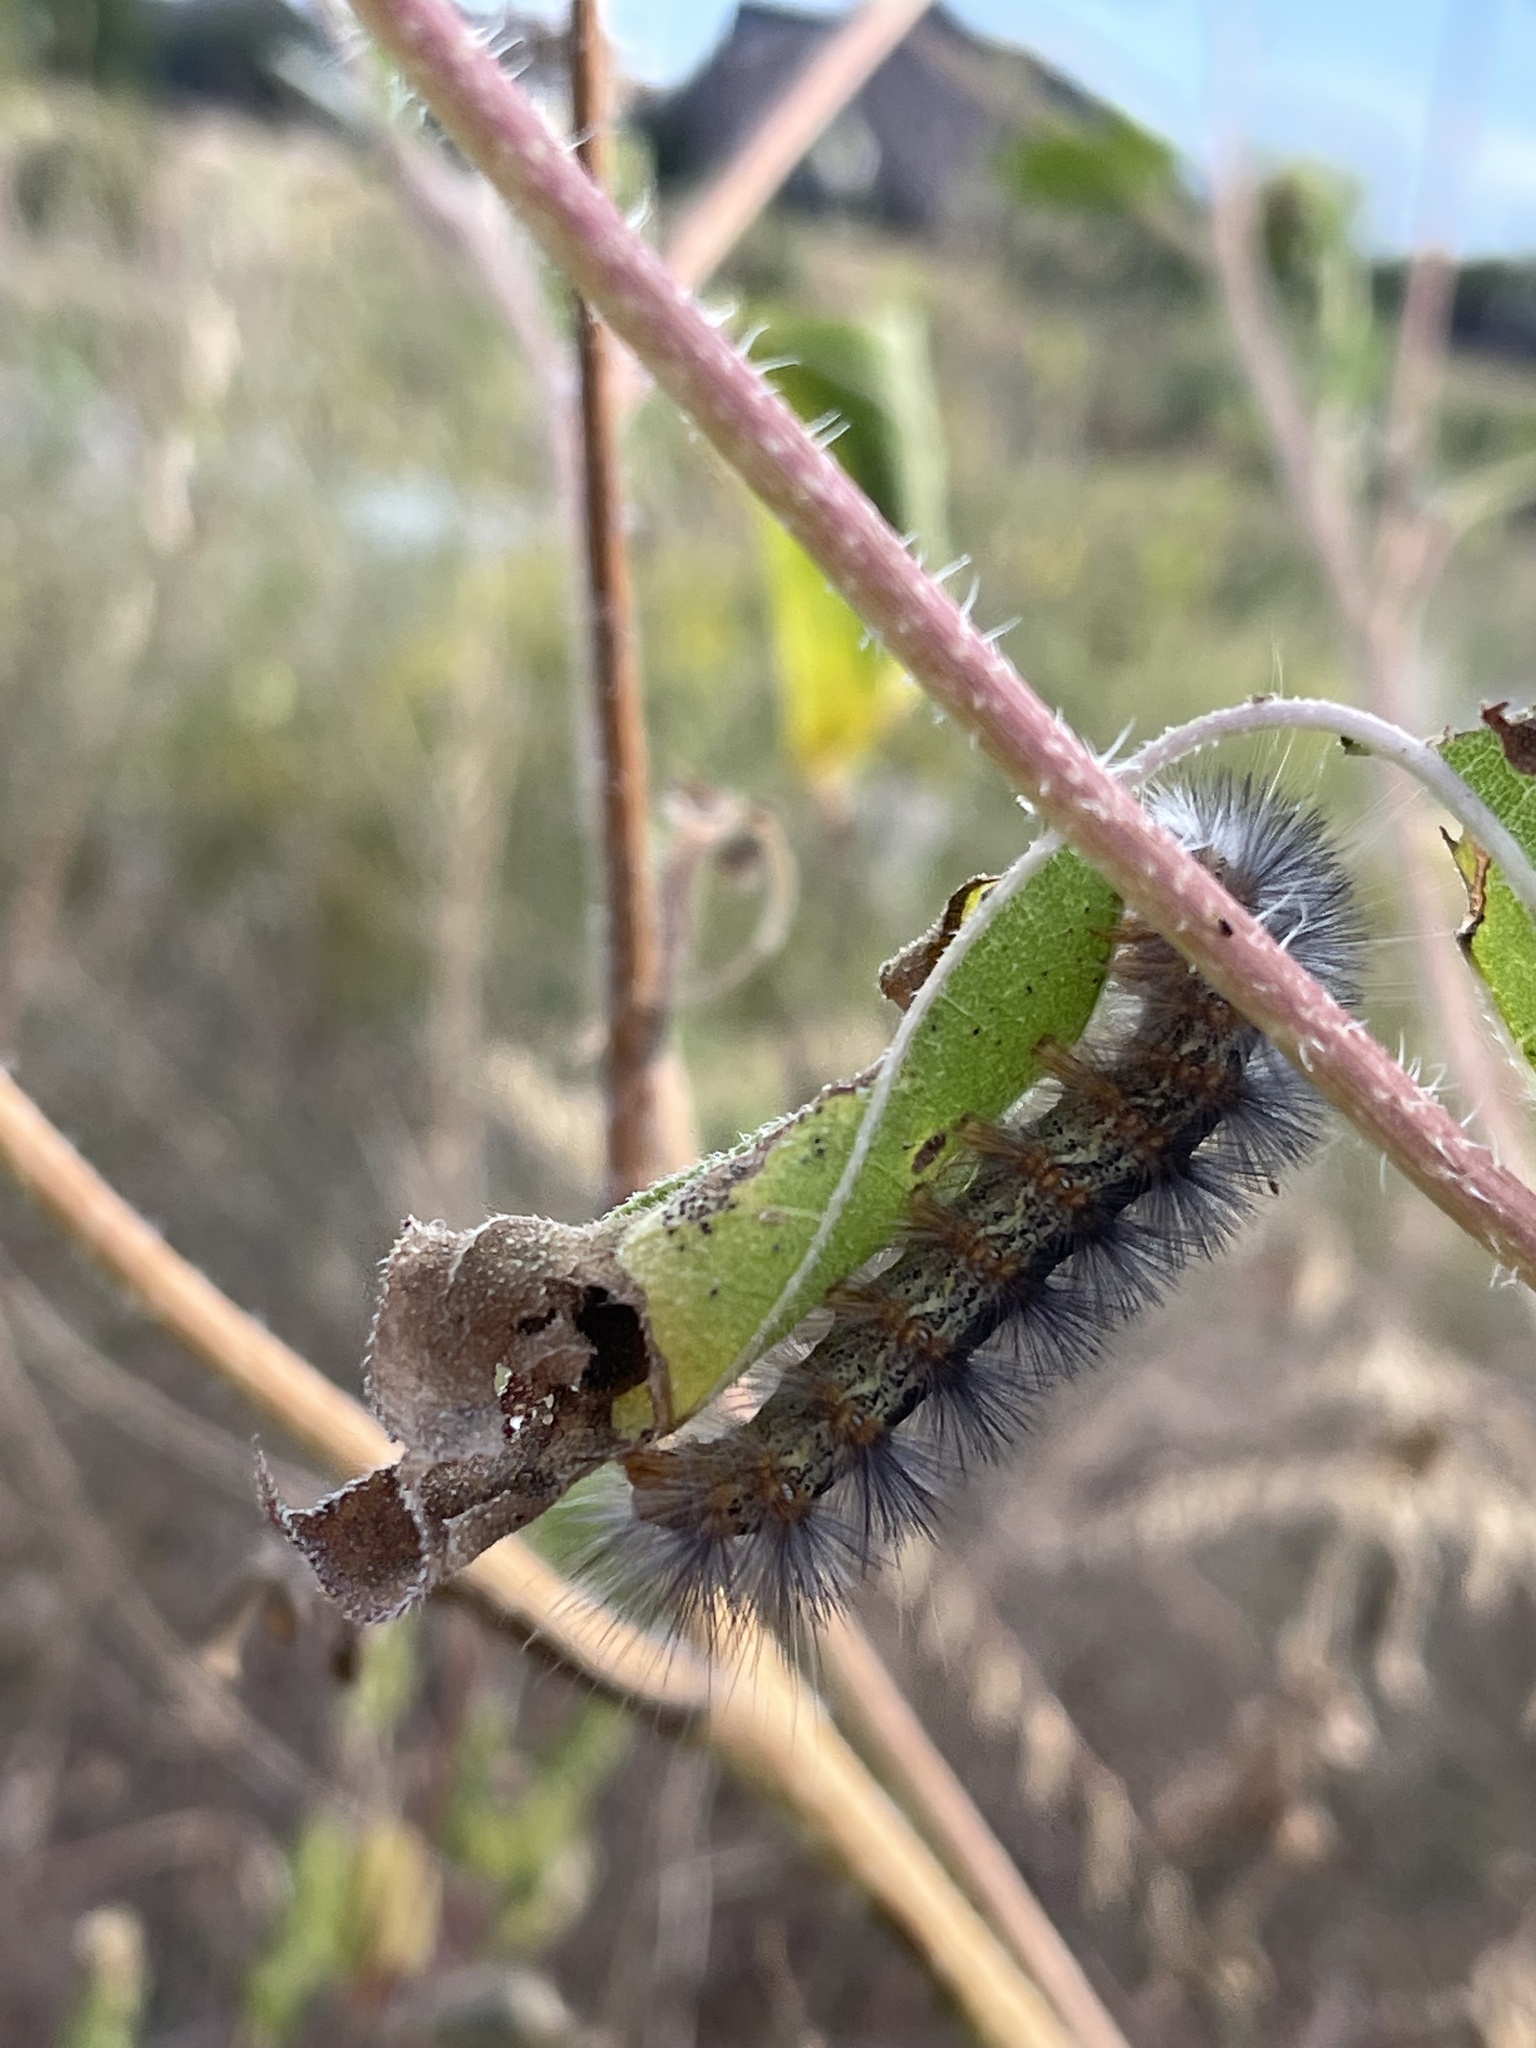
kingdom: Animalia
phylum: Arthropoda
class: Insecta
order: Lepidoptera
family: Erebidae
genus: Estigmene
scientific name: Estigmene acrea
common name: Salt marsh moth
